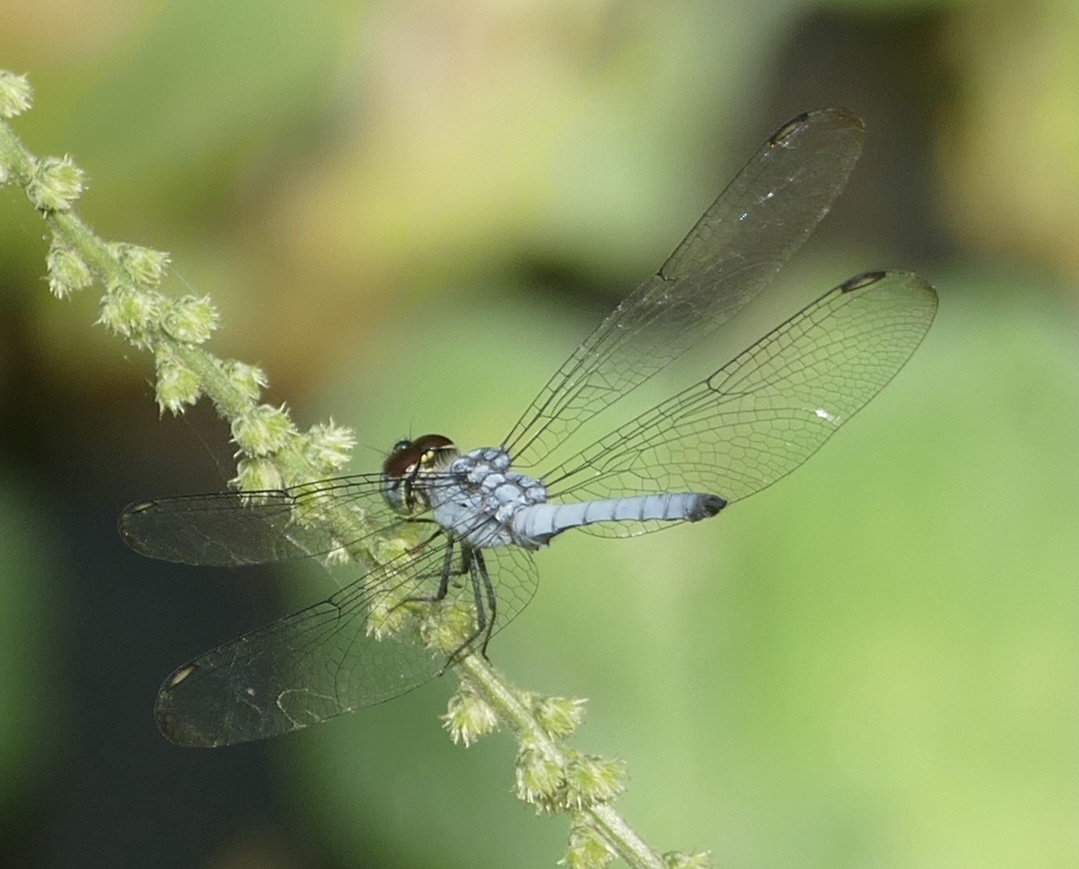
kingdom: Animalia
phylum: Arthropoda
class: Insecta
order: Odonata
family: Libellulidae
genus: Chalcostephia
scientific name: Chalcostephia flavifrons
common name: Inspector
